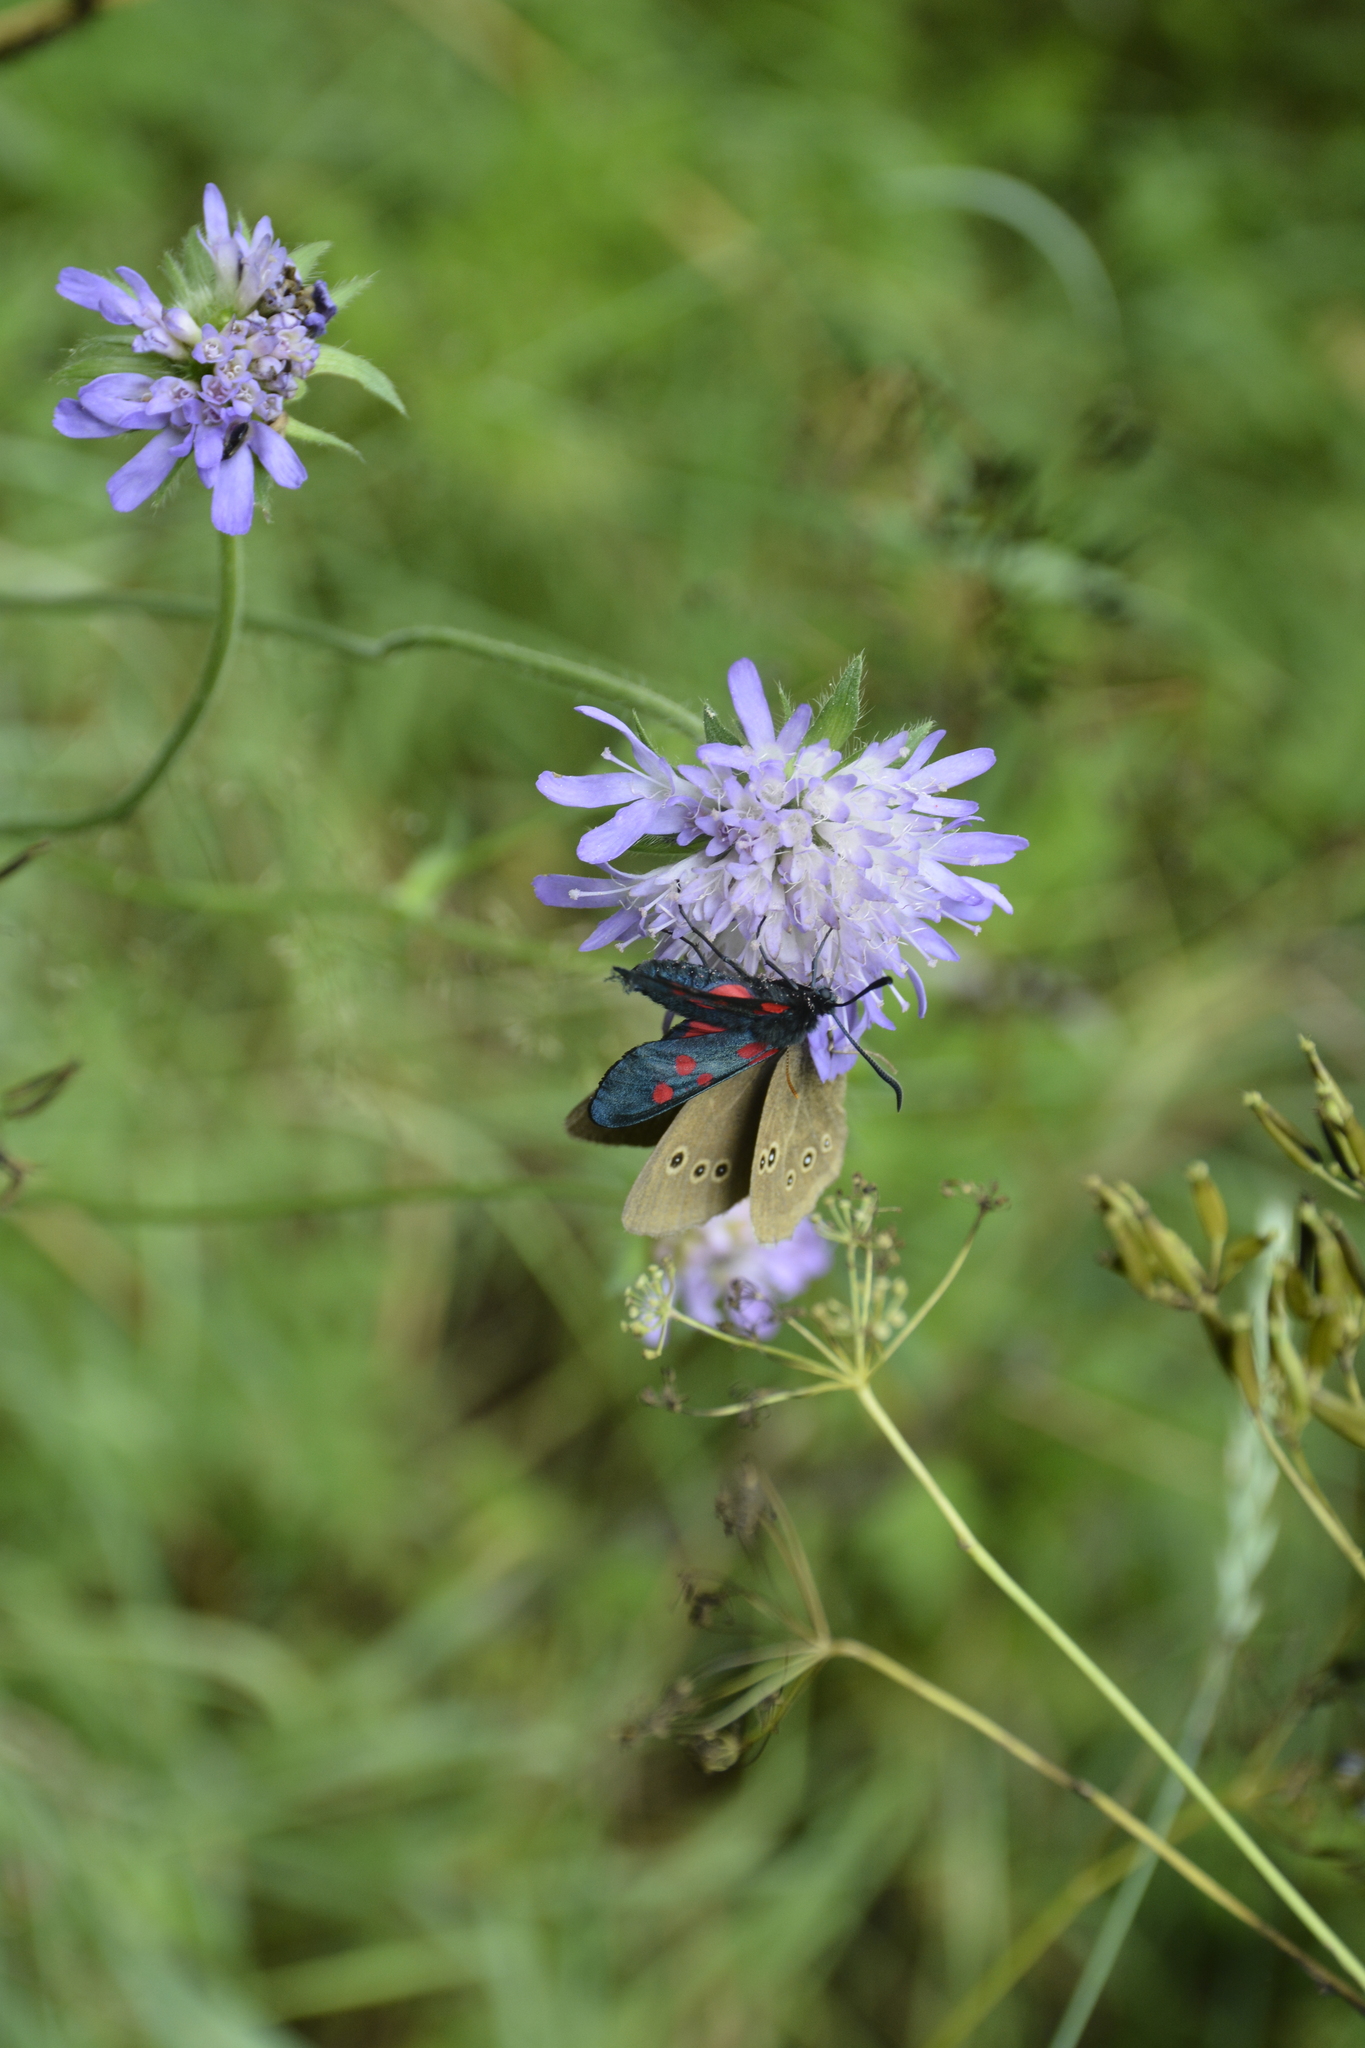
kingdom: Animalia
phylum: Arthropoda
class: Insecta
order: Lepidoptera
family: Zygaenidae
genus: Zygaena
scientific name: Zygaena lonicerae
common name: Narrow-bordered five-spot burnet
